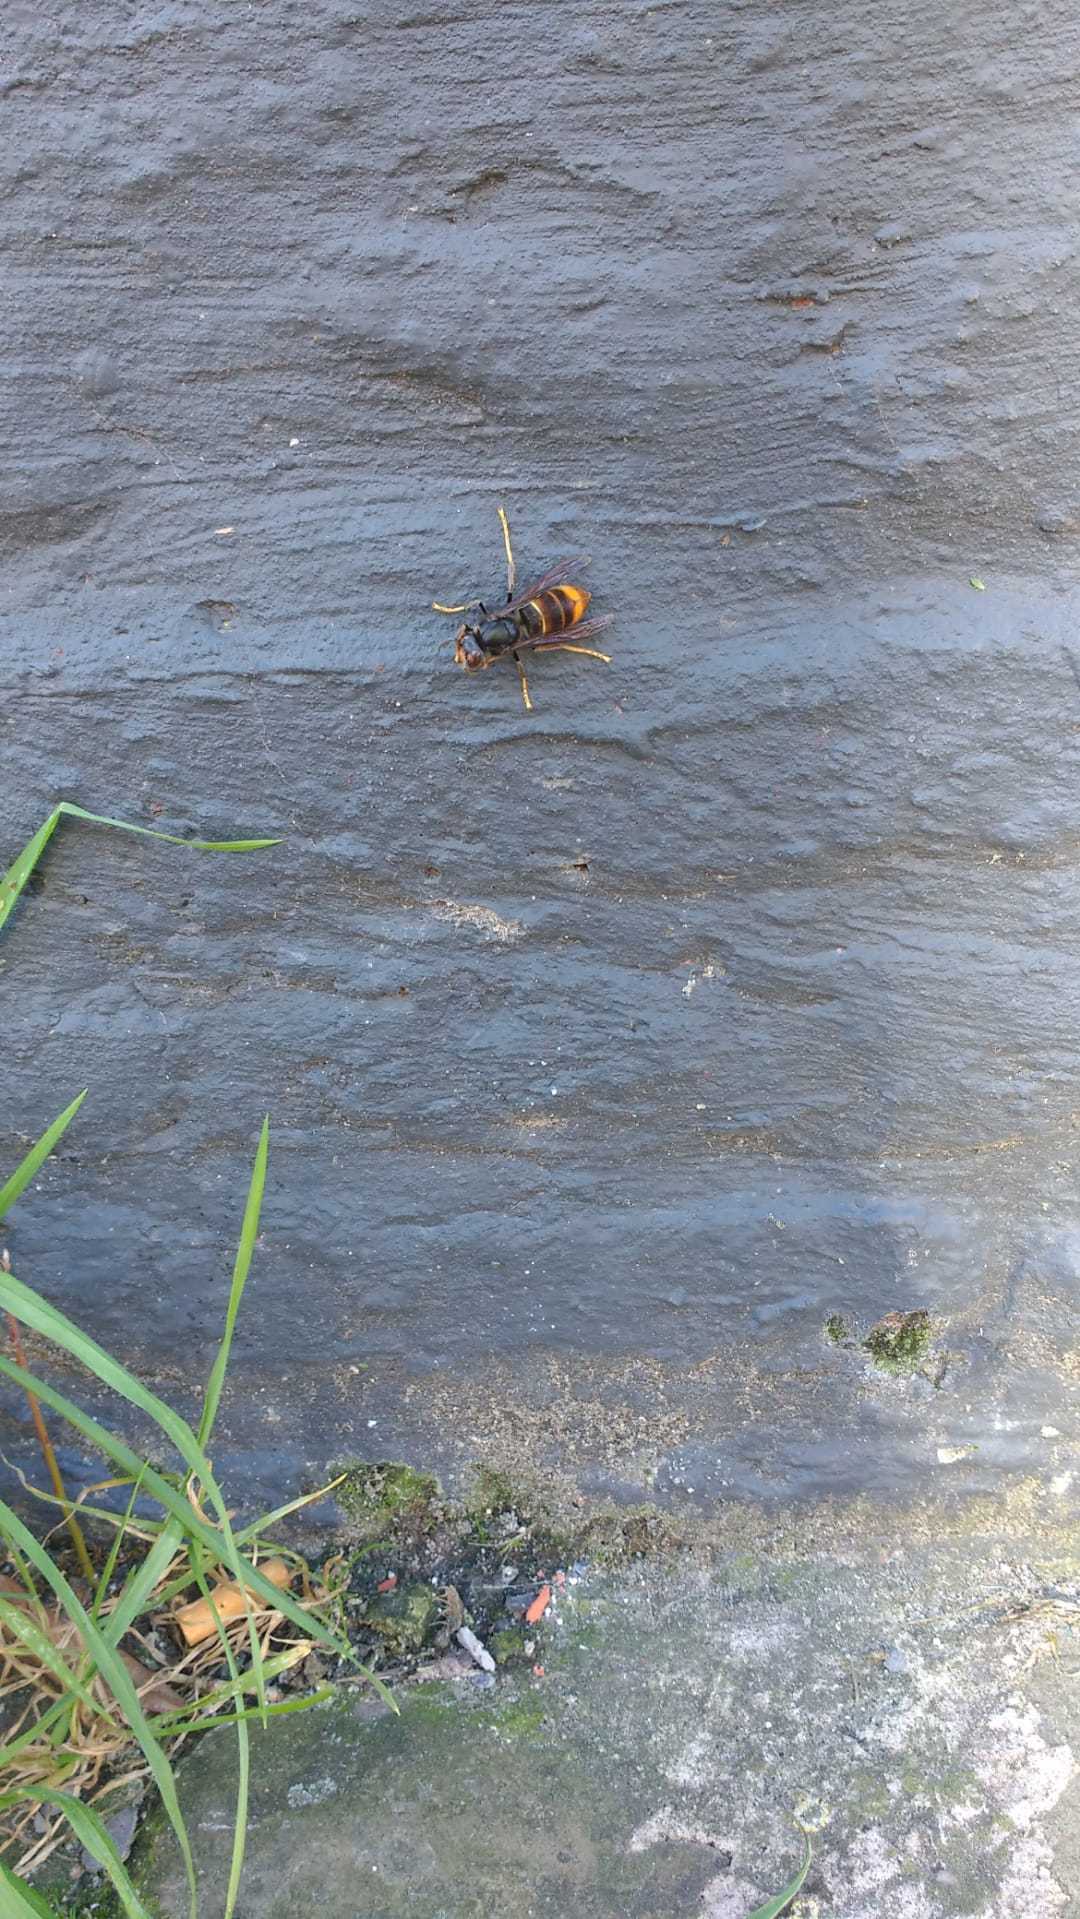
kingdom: Animalia
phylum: Arthropoda
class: Insecta
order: Hymenoptera
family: Vespidae
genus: Vespa
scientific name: Vespa velutina
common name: Asian hornet
